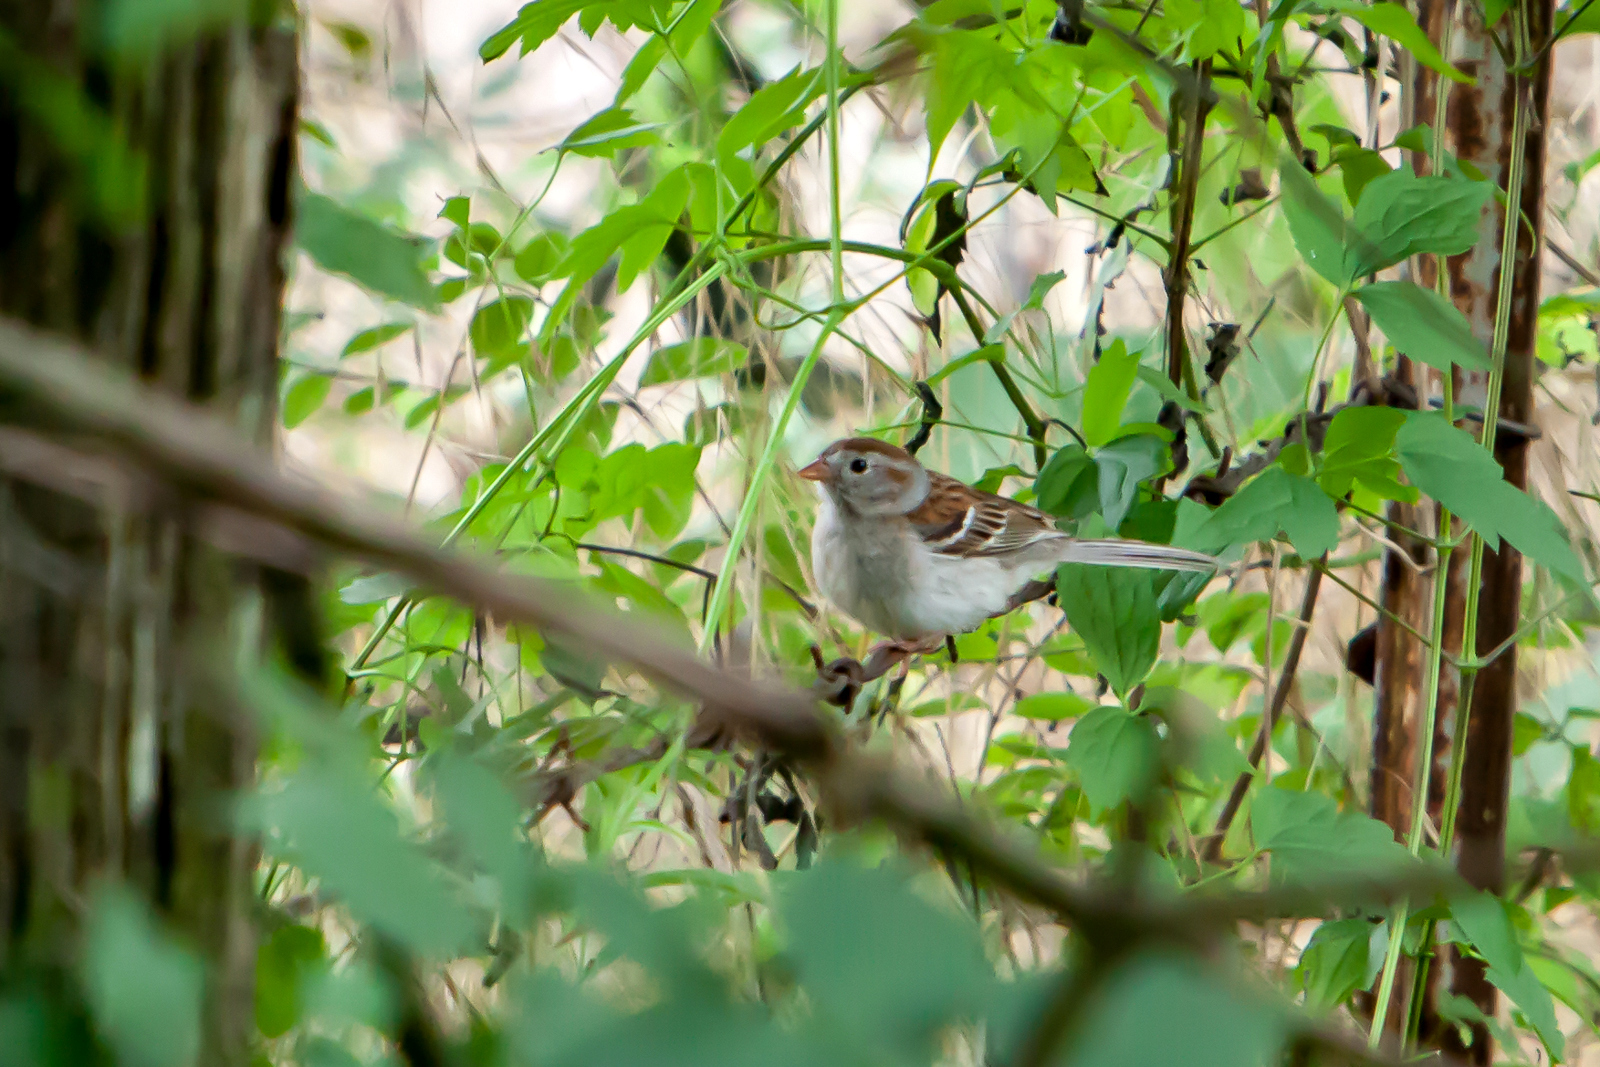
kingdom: Animalia
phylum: Chordata
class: Aves
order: Passeriformes
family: Passerellidae
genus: Spizella
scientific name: Spizella pusilla
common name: Field sparrow
